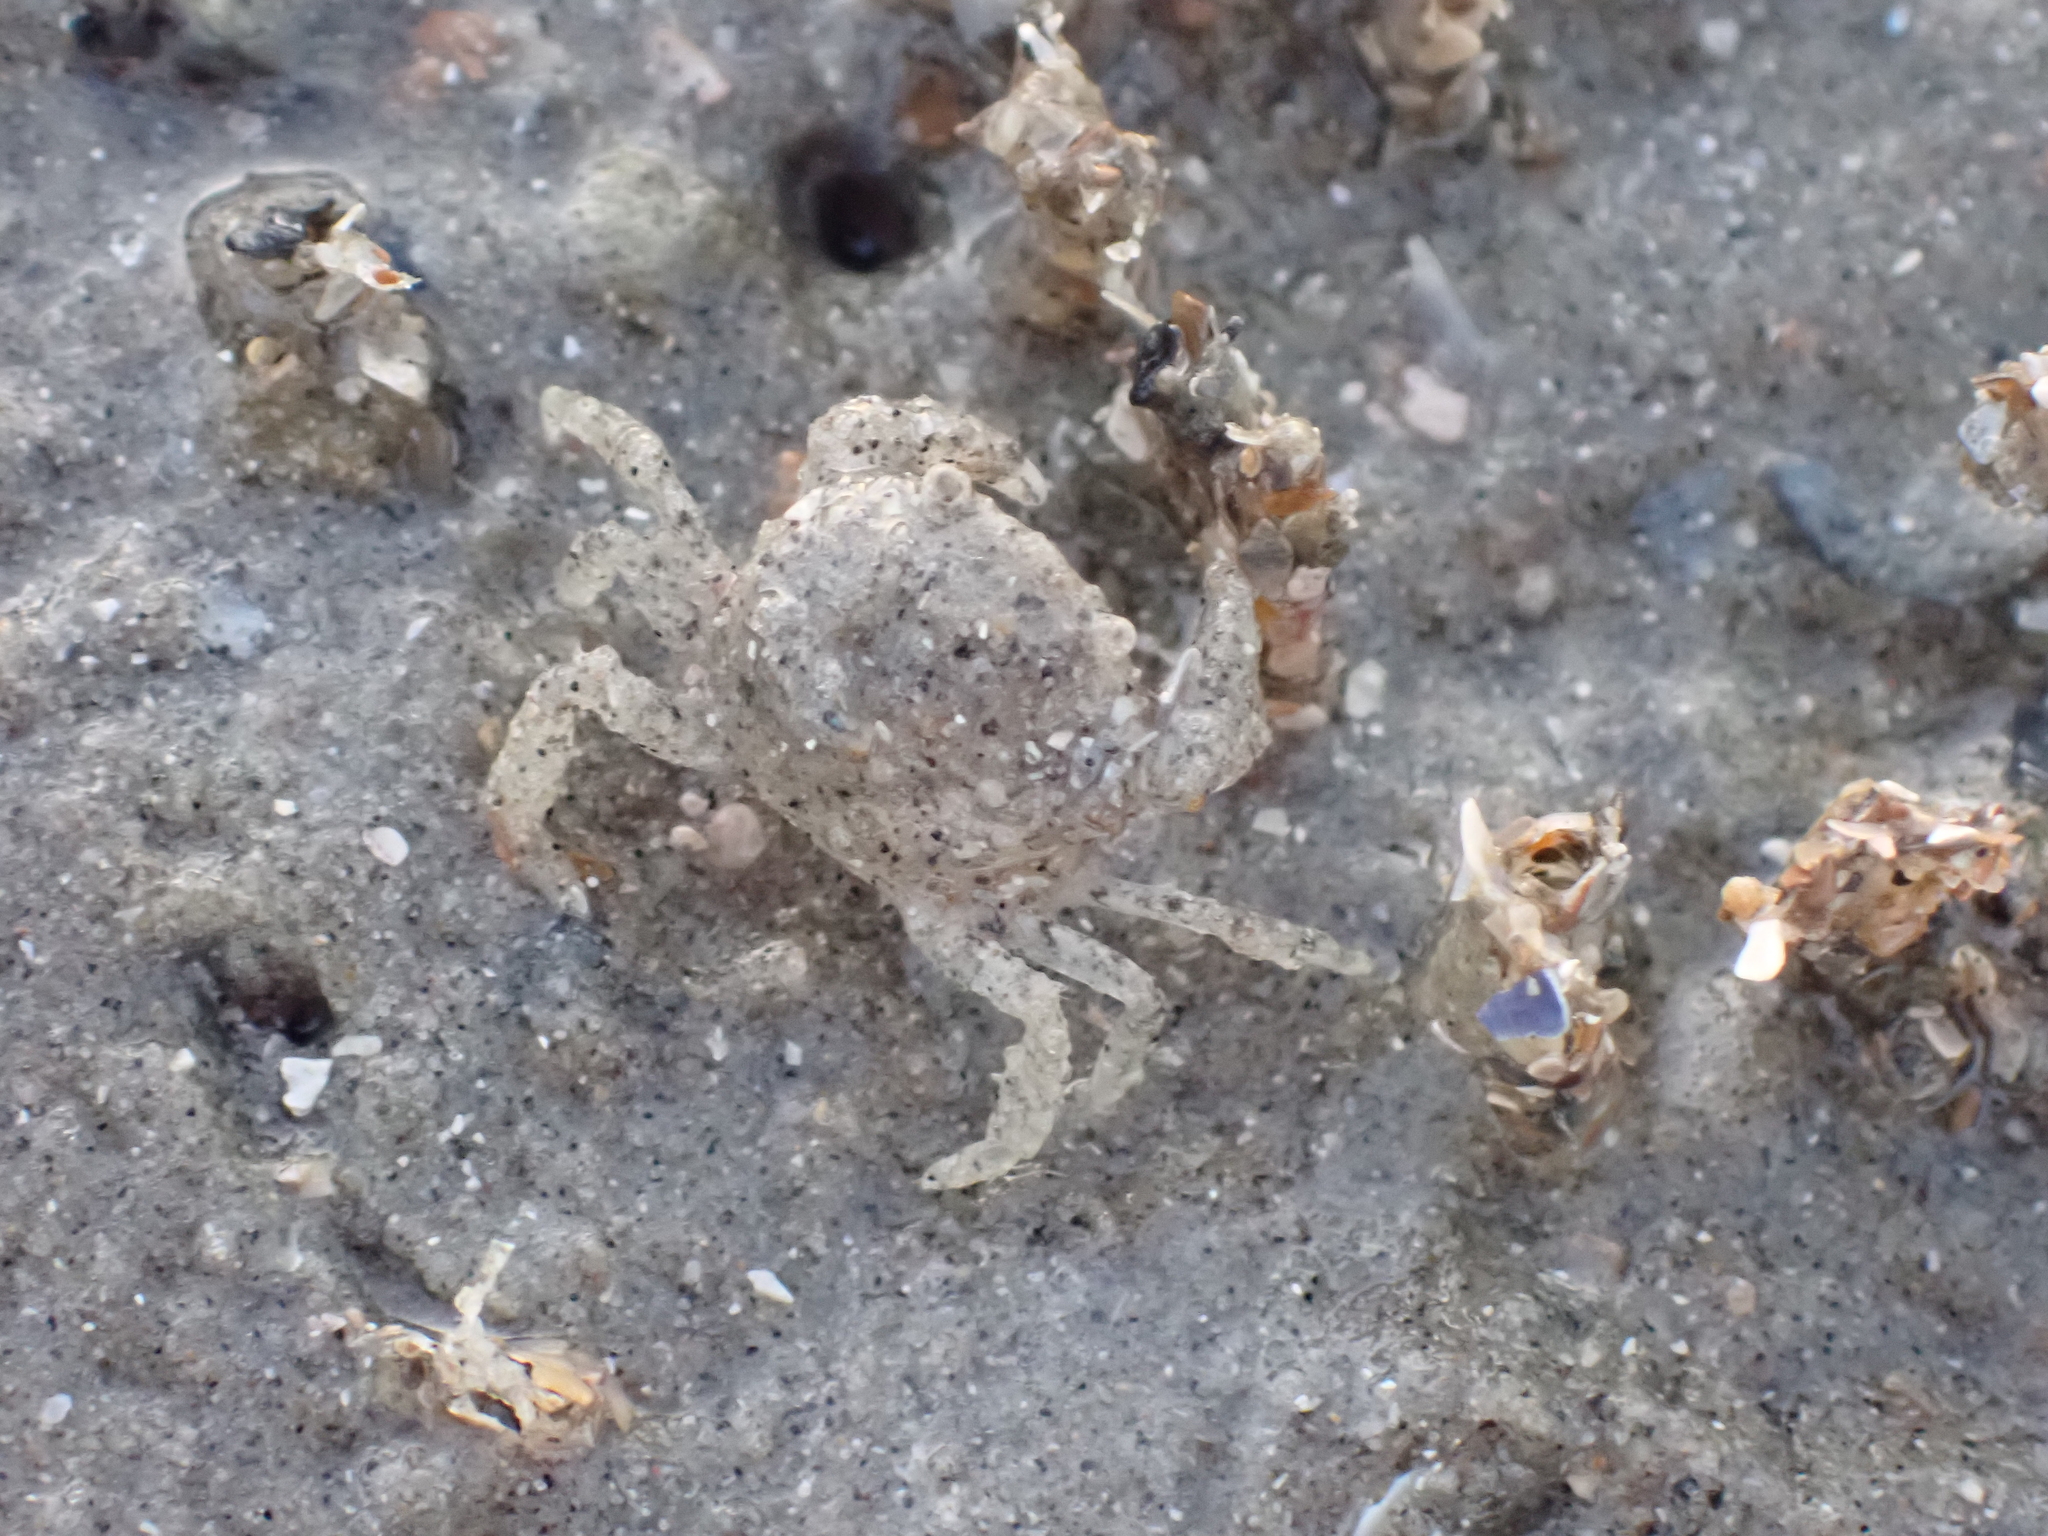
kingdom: Animalia
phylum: Arthropoda
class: Malacostraca
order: Decapoda
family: Carcinidae
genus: Carcinus
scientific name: Carcinus maenas
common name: European green crab
